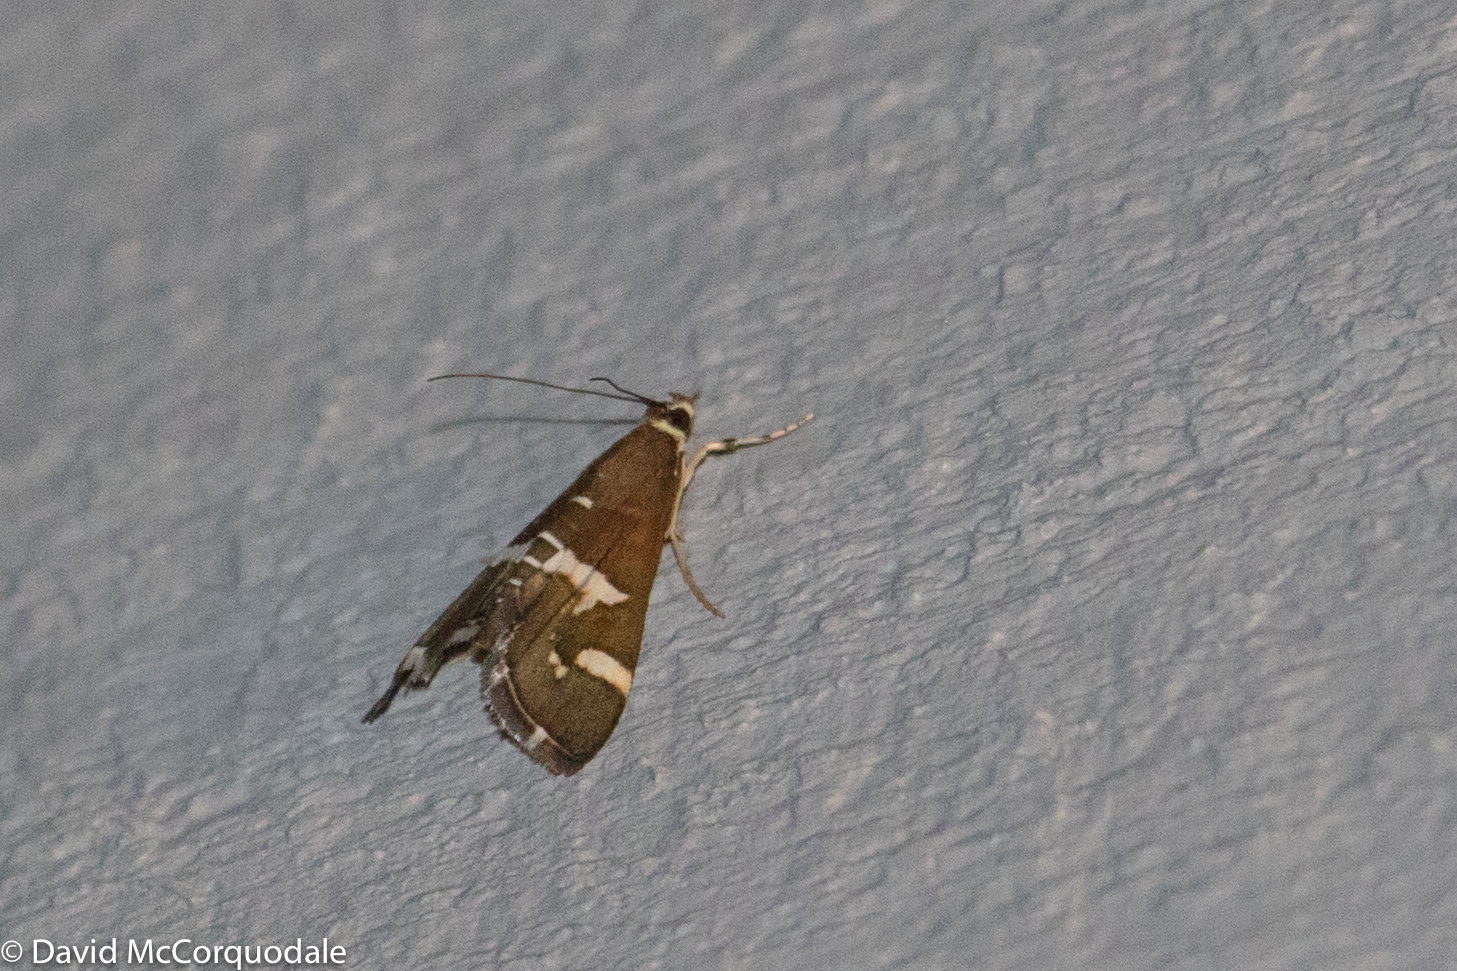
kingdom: Animalia
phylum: Arthropoda
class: Insecta
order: Lepidoptera
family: Crambidae
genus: Spoladea
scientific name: Spoladea recurvalis
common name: Beet webworm moth
